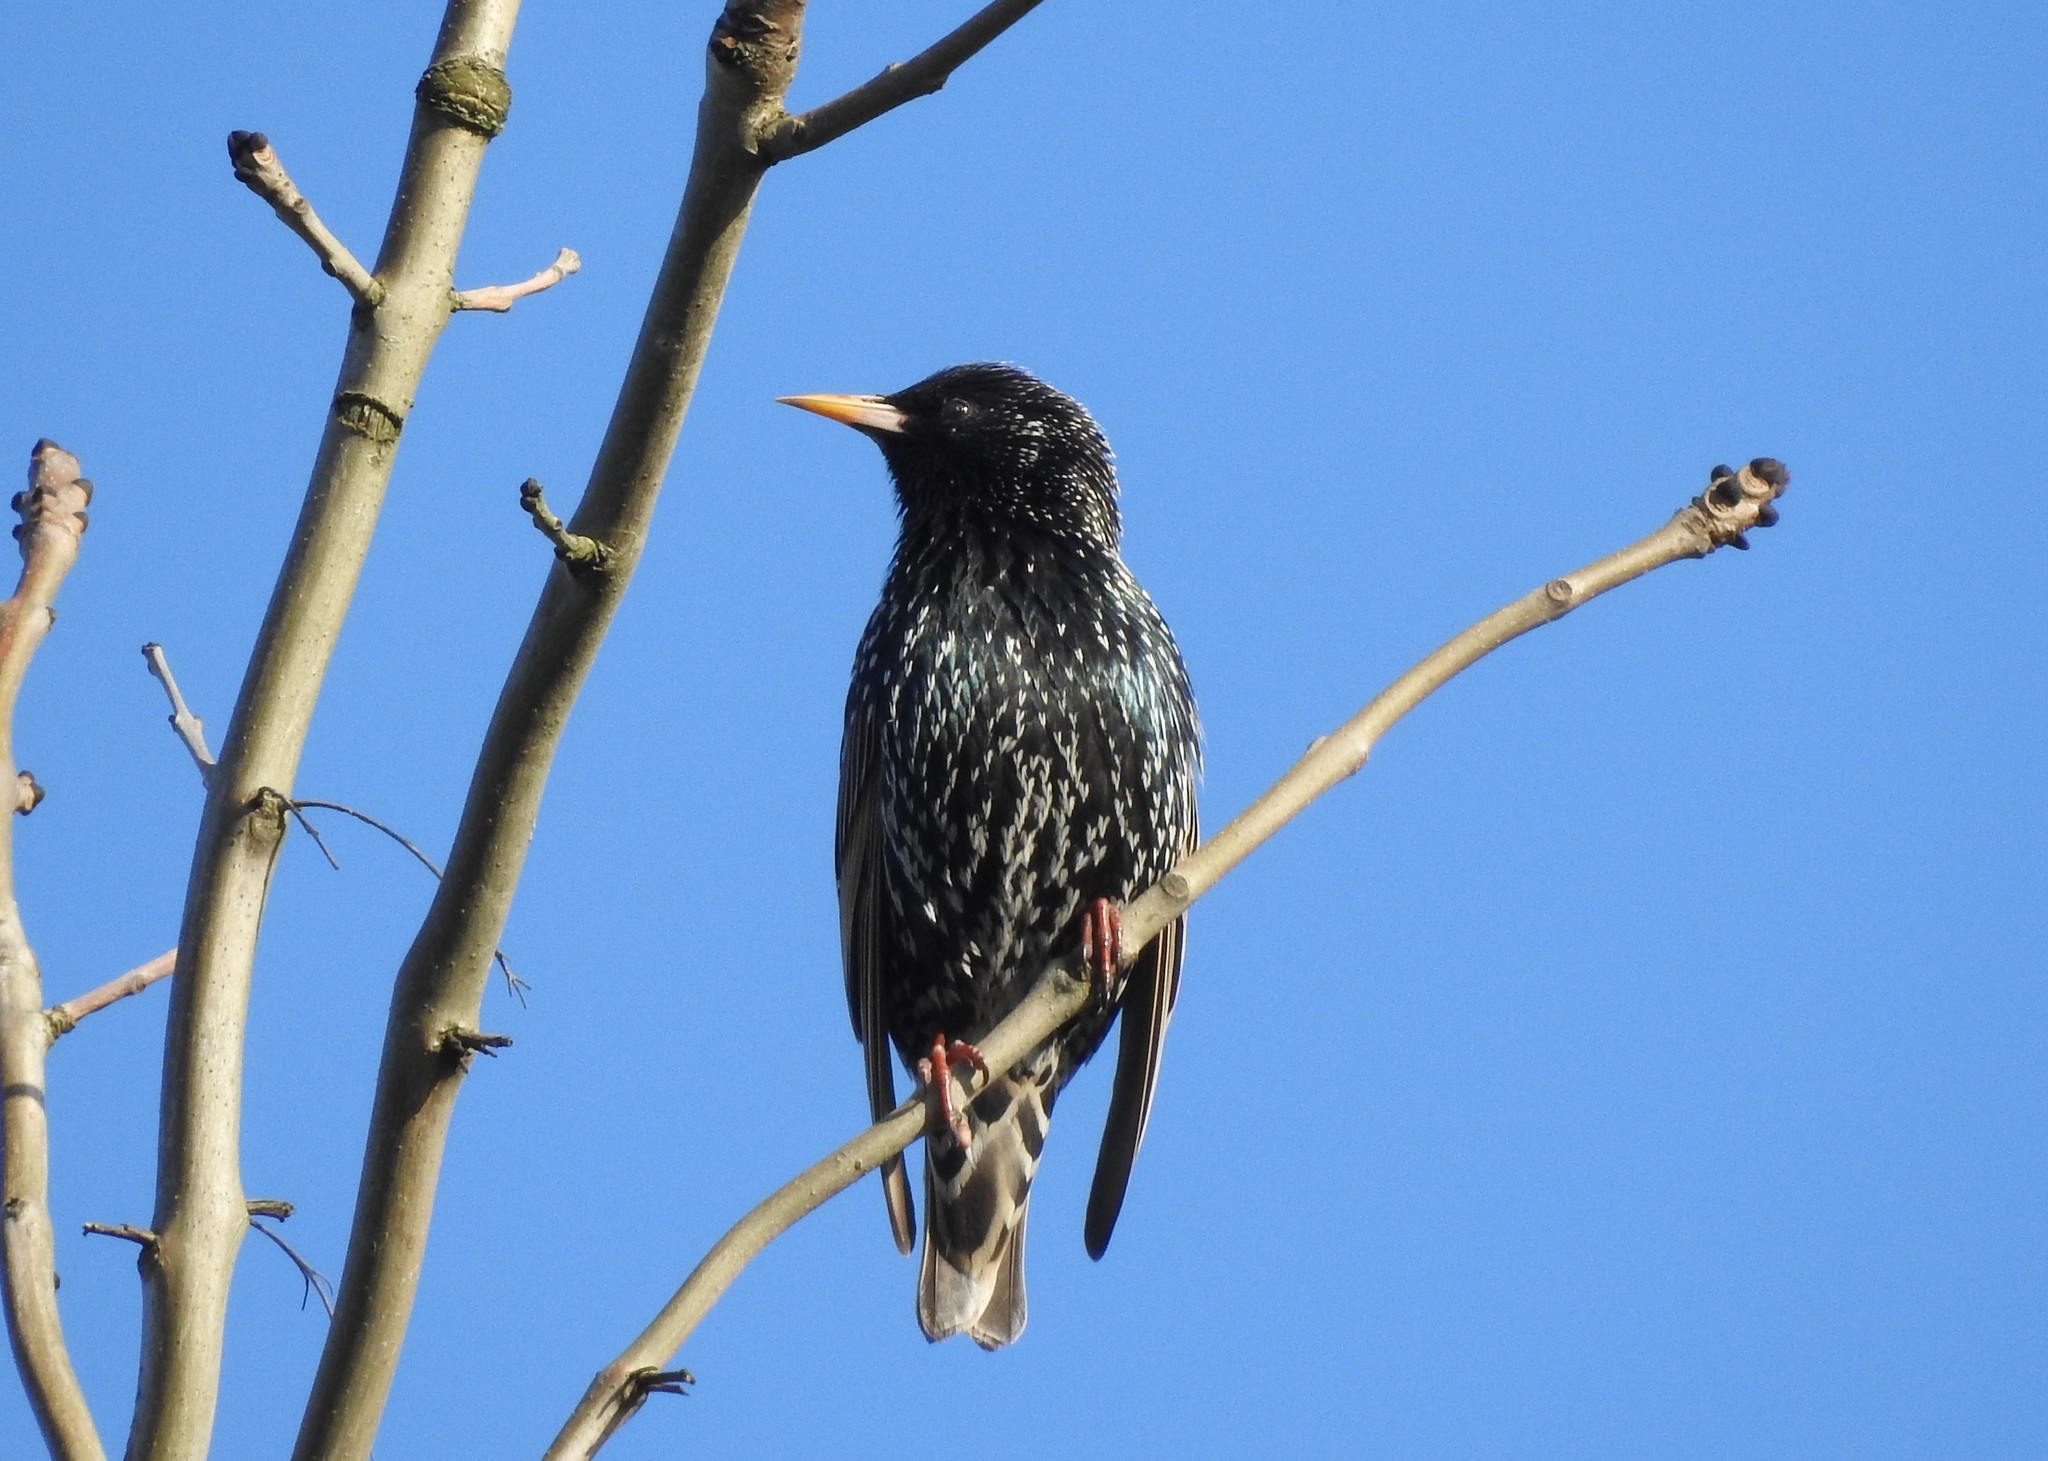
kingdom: Animalia
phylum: Chordata
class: Aves
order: Passeriformes
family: Sturnidae
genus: Sturnus
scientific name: Sturnus vulgaris
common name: Common starling
